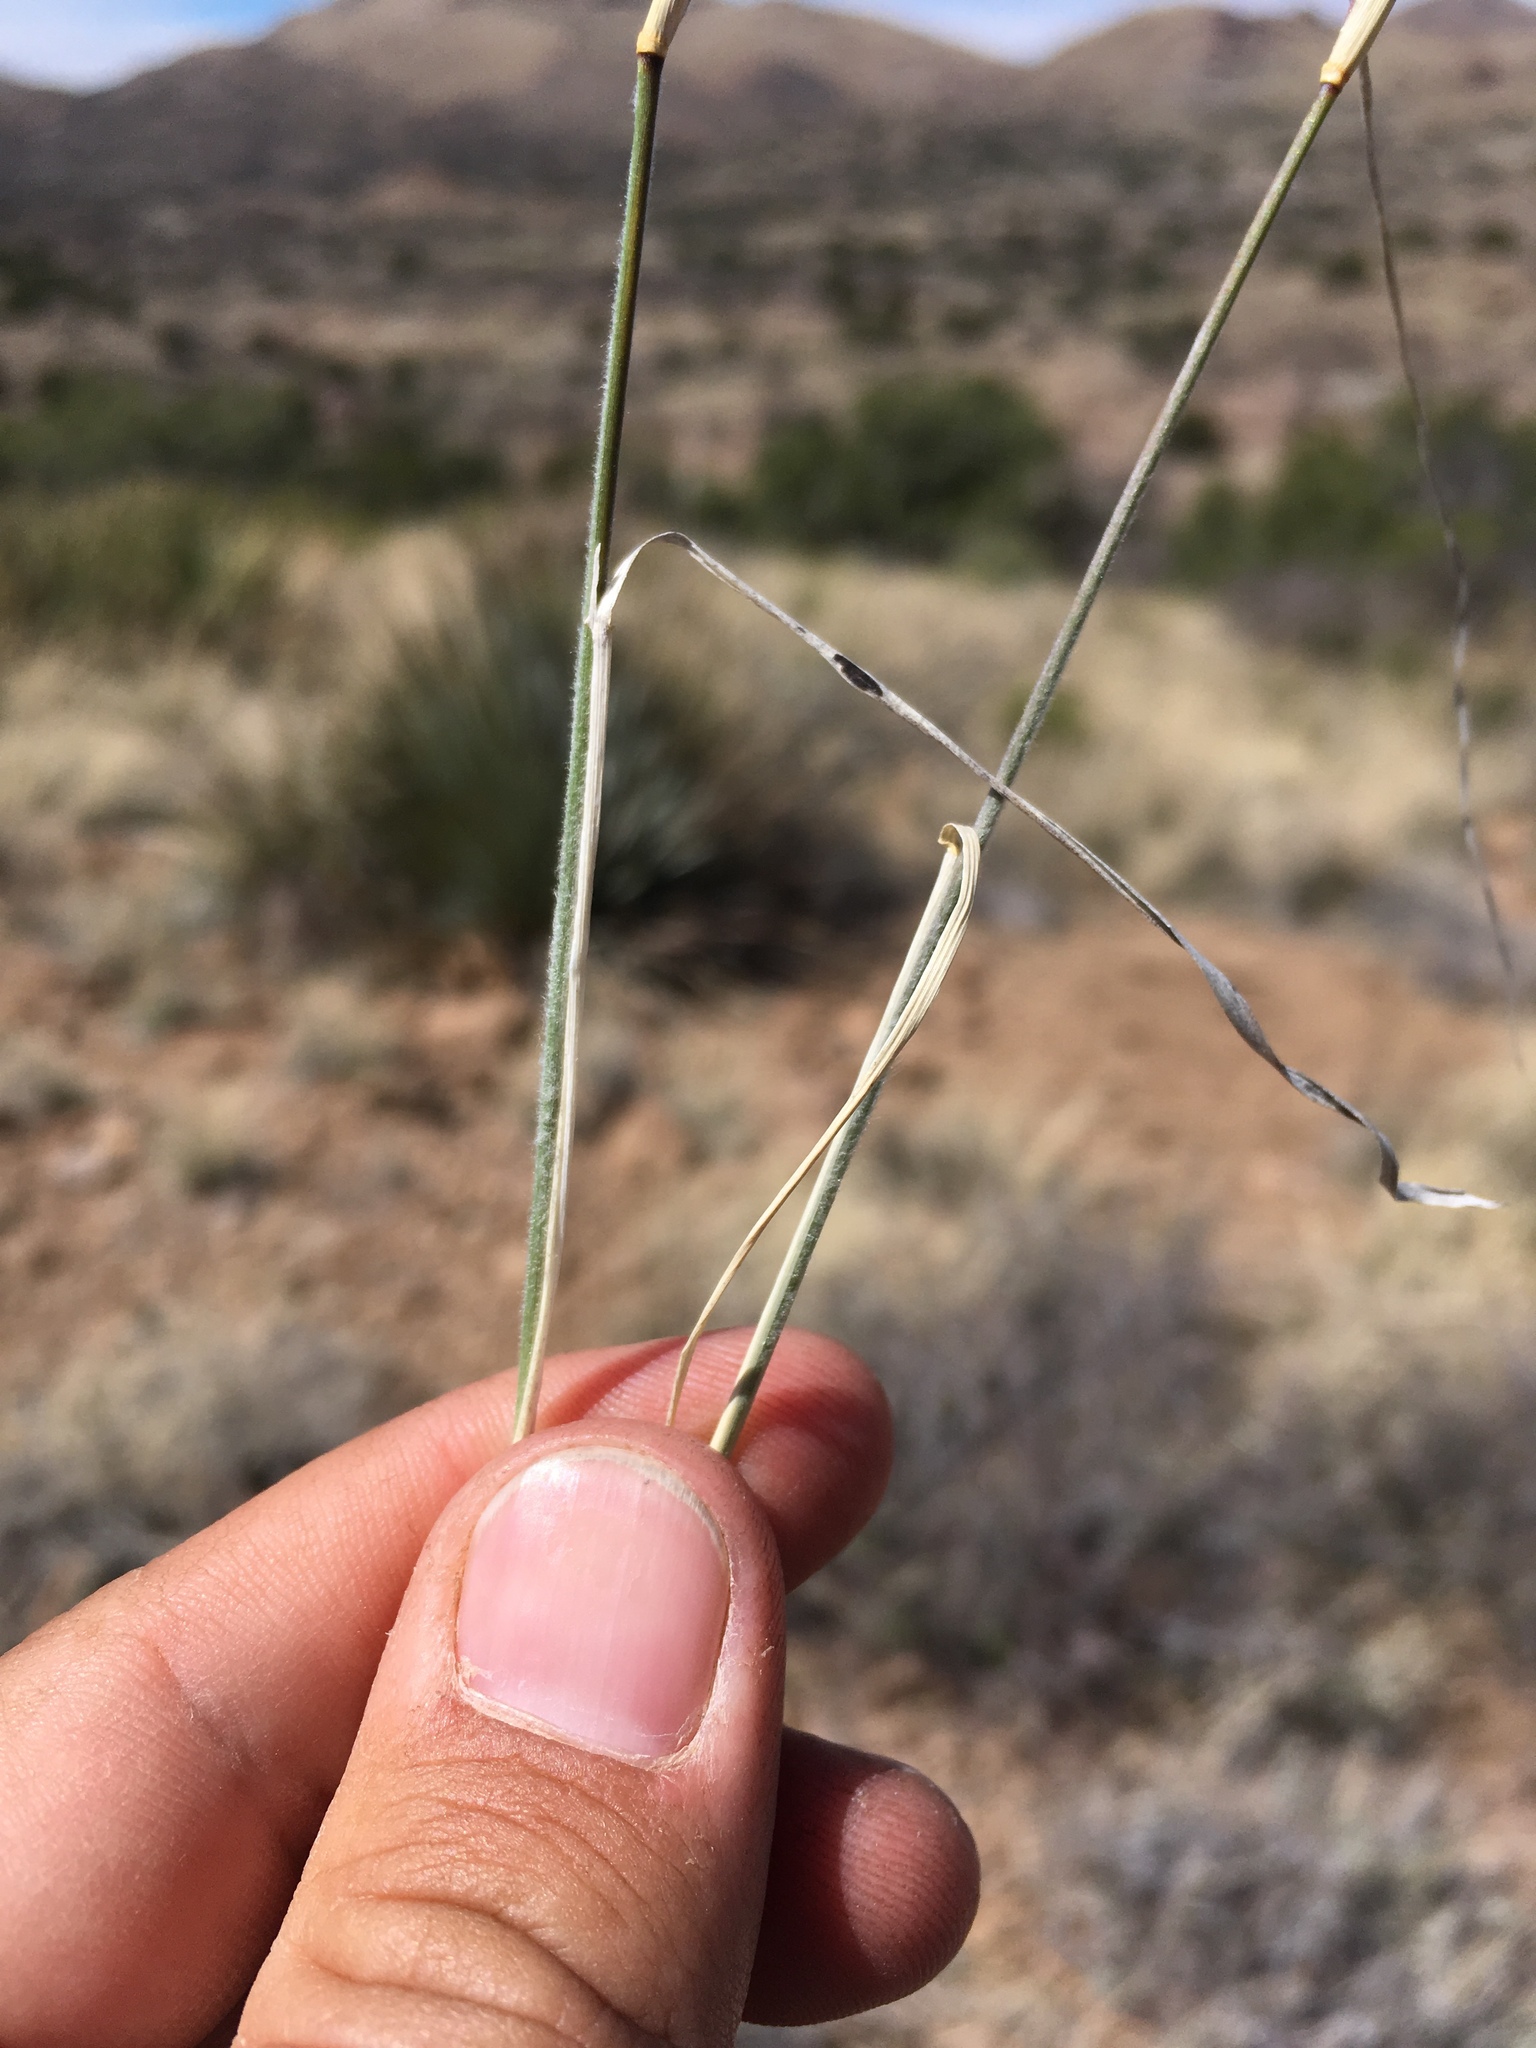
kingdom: Plantae
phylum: Tracheophyta
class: Liliopsida
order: Poales
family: Poaceae
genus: Bouteloua
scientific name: Bouteloua eriopoda
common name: Woolly foot grama
